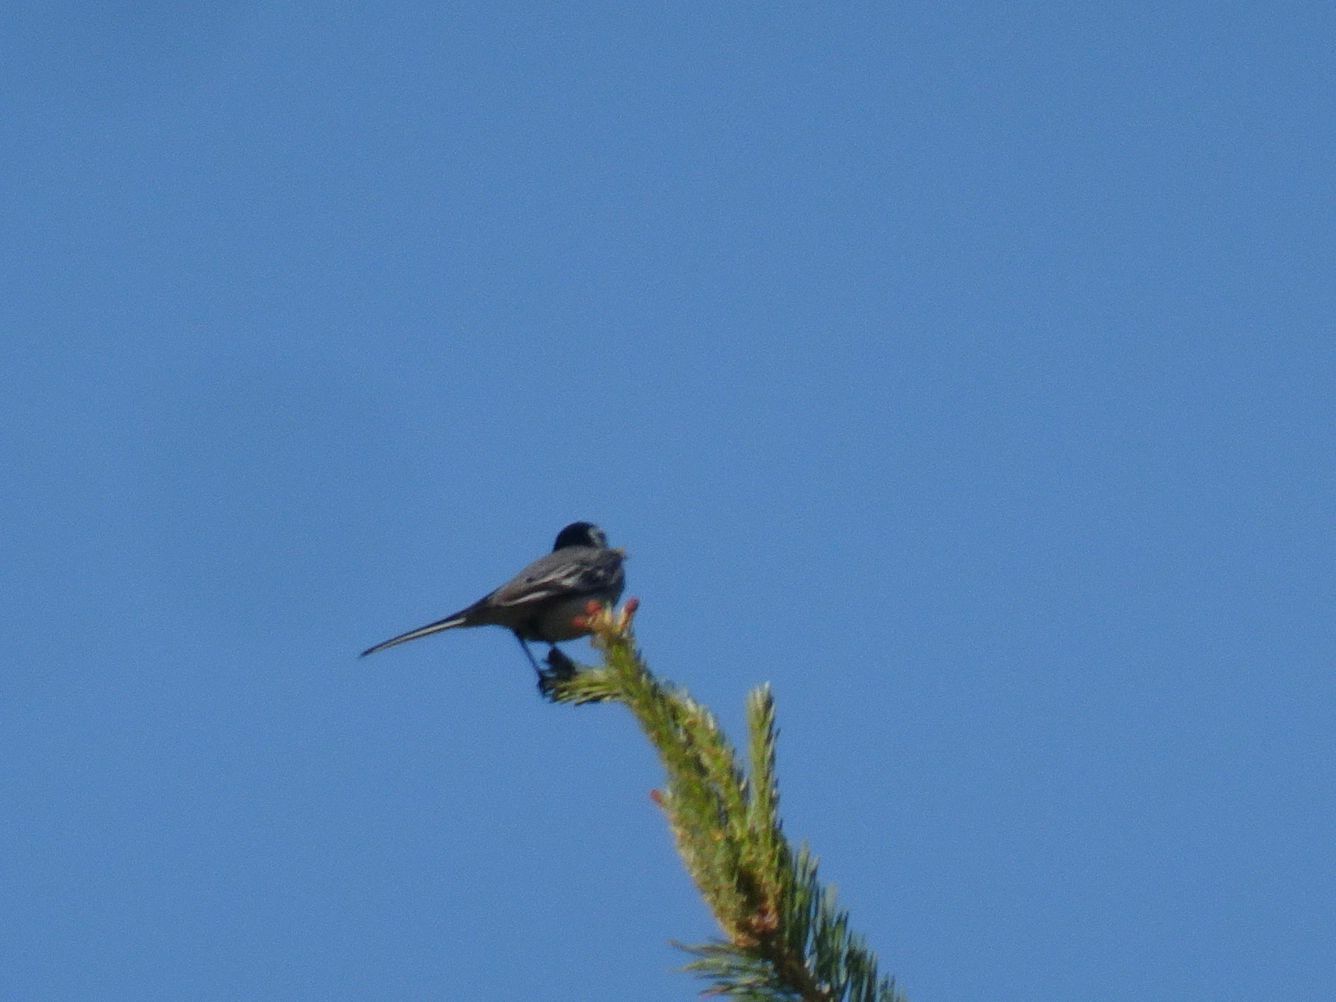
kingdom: Animalia
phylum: Chordata
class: Aves
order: Passeriformes
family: Motacillidae
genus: Motacilla
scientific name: Motacilla alba
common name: White wagtail
